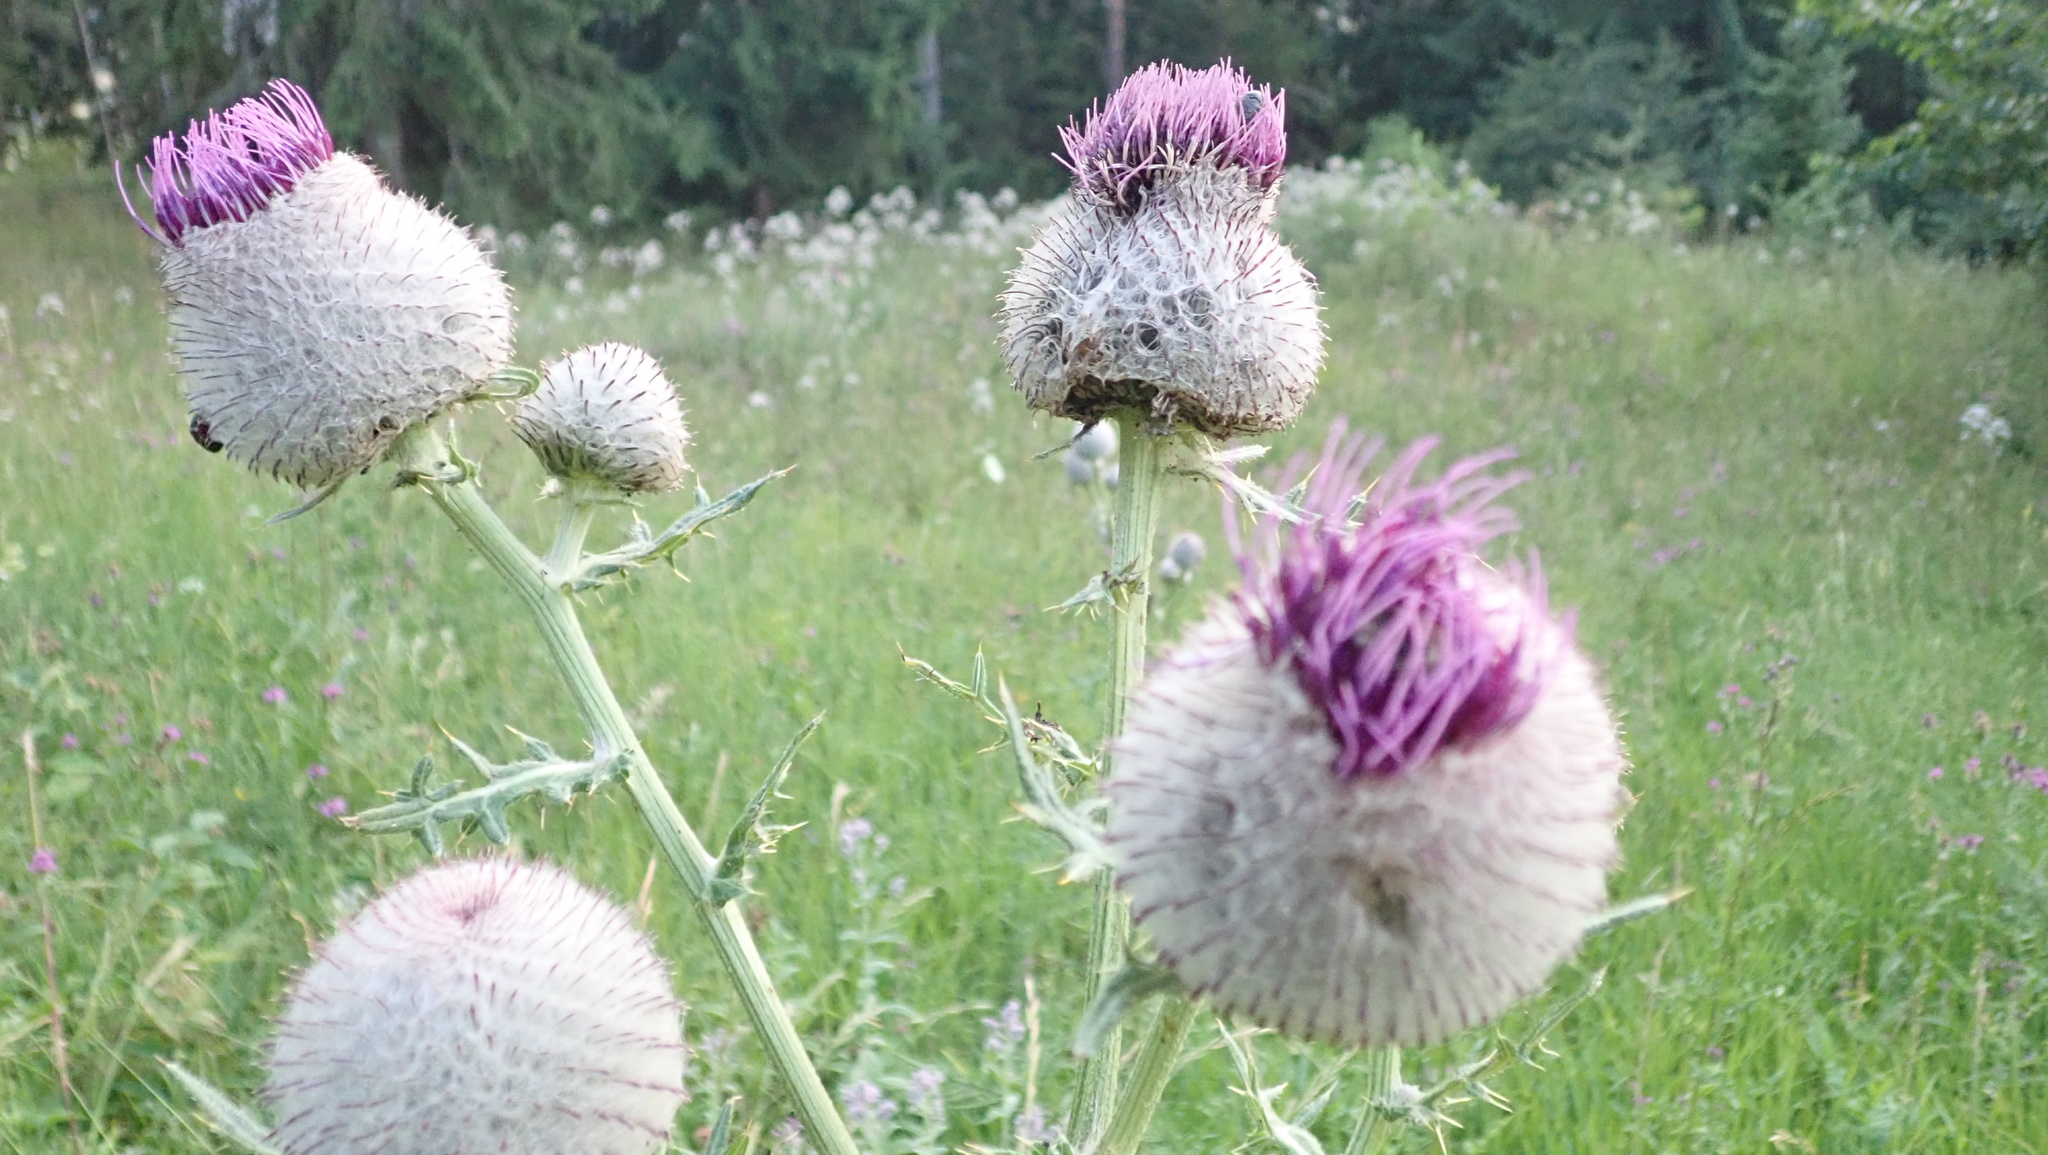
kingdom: Plantae
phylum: Tracheophyta
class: Magnoliopsida
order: Asterales
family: Asteraceae
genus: Lophiolepis
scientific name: Lophiolepis eriophora
